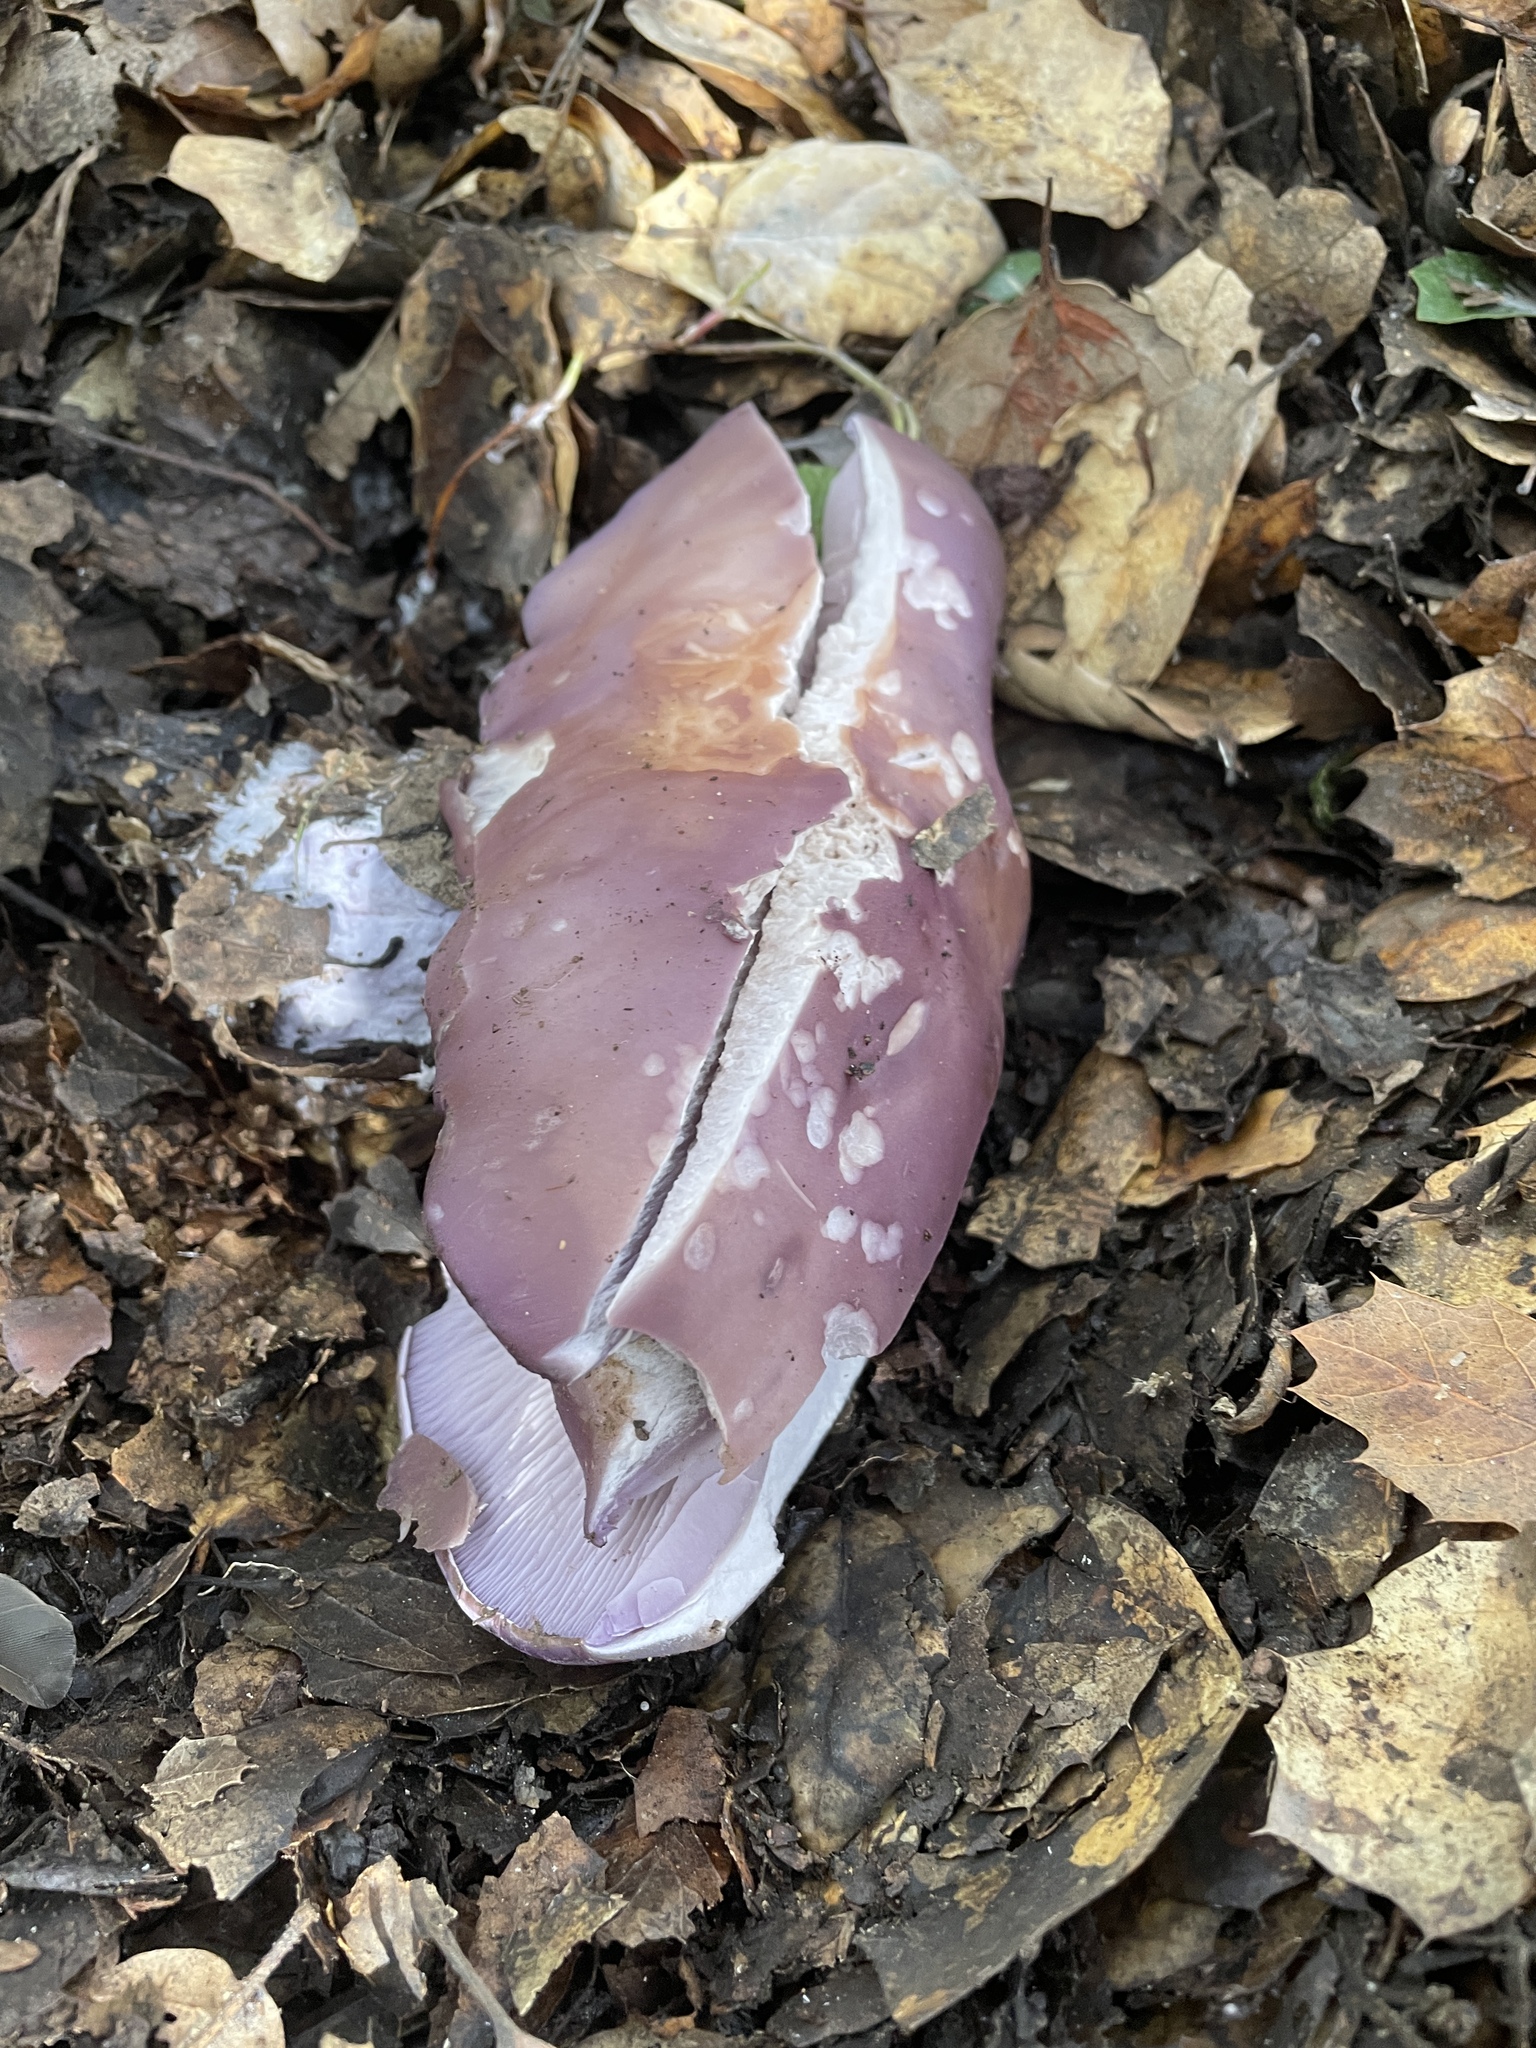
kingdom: Fungi
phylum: Basidiomycota
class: Agaricomycetes
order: Agaricales
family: Tricholomataceae
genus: Collybia
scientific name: Collybia
